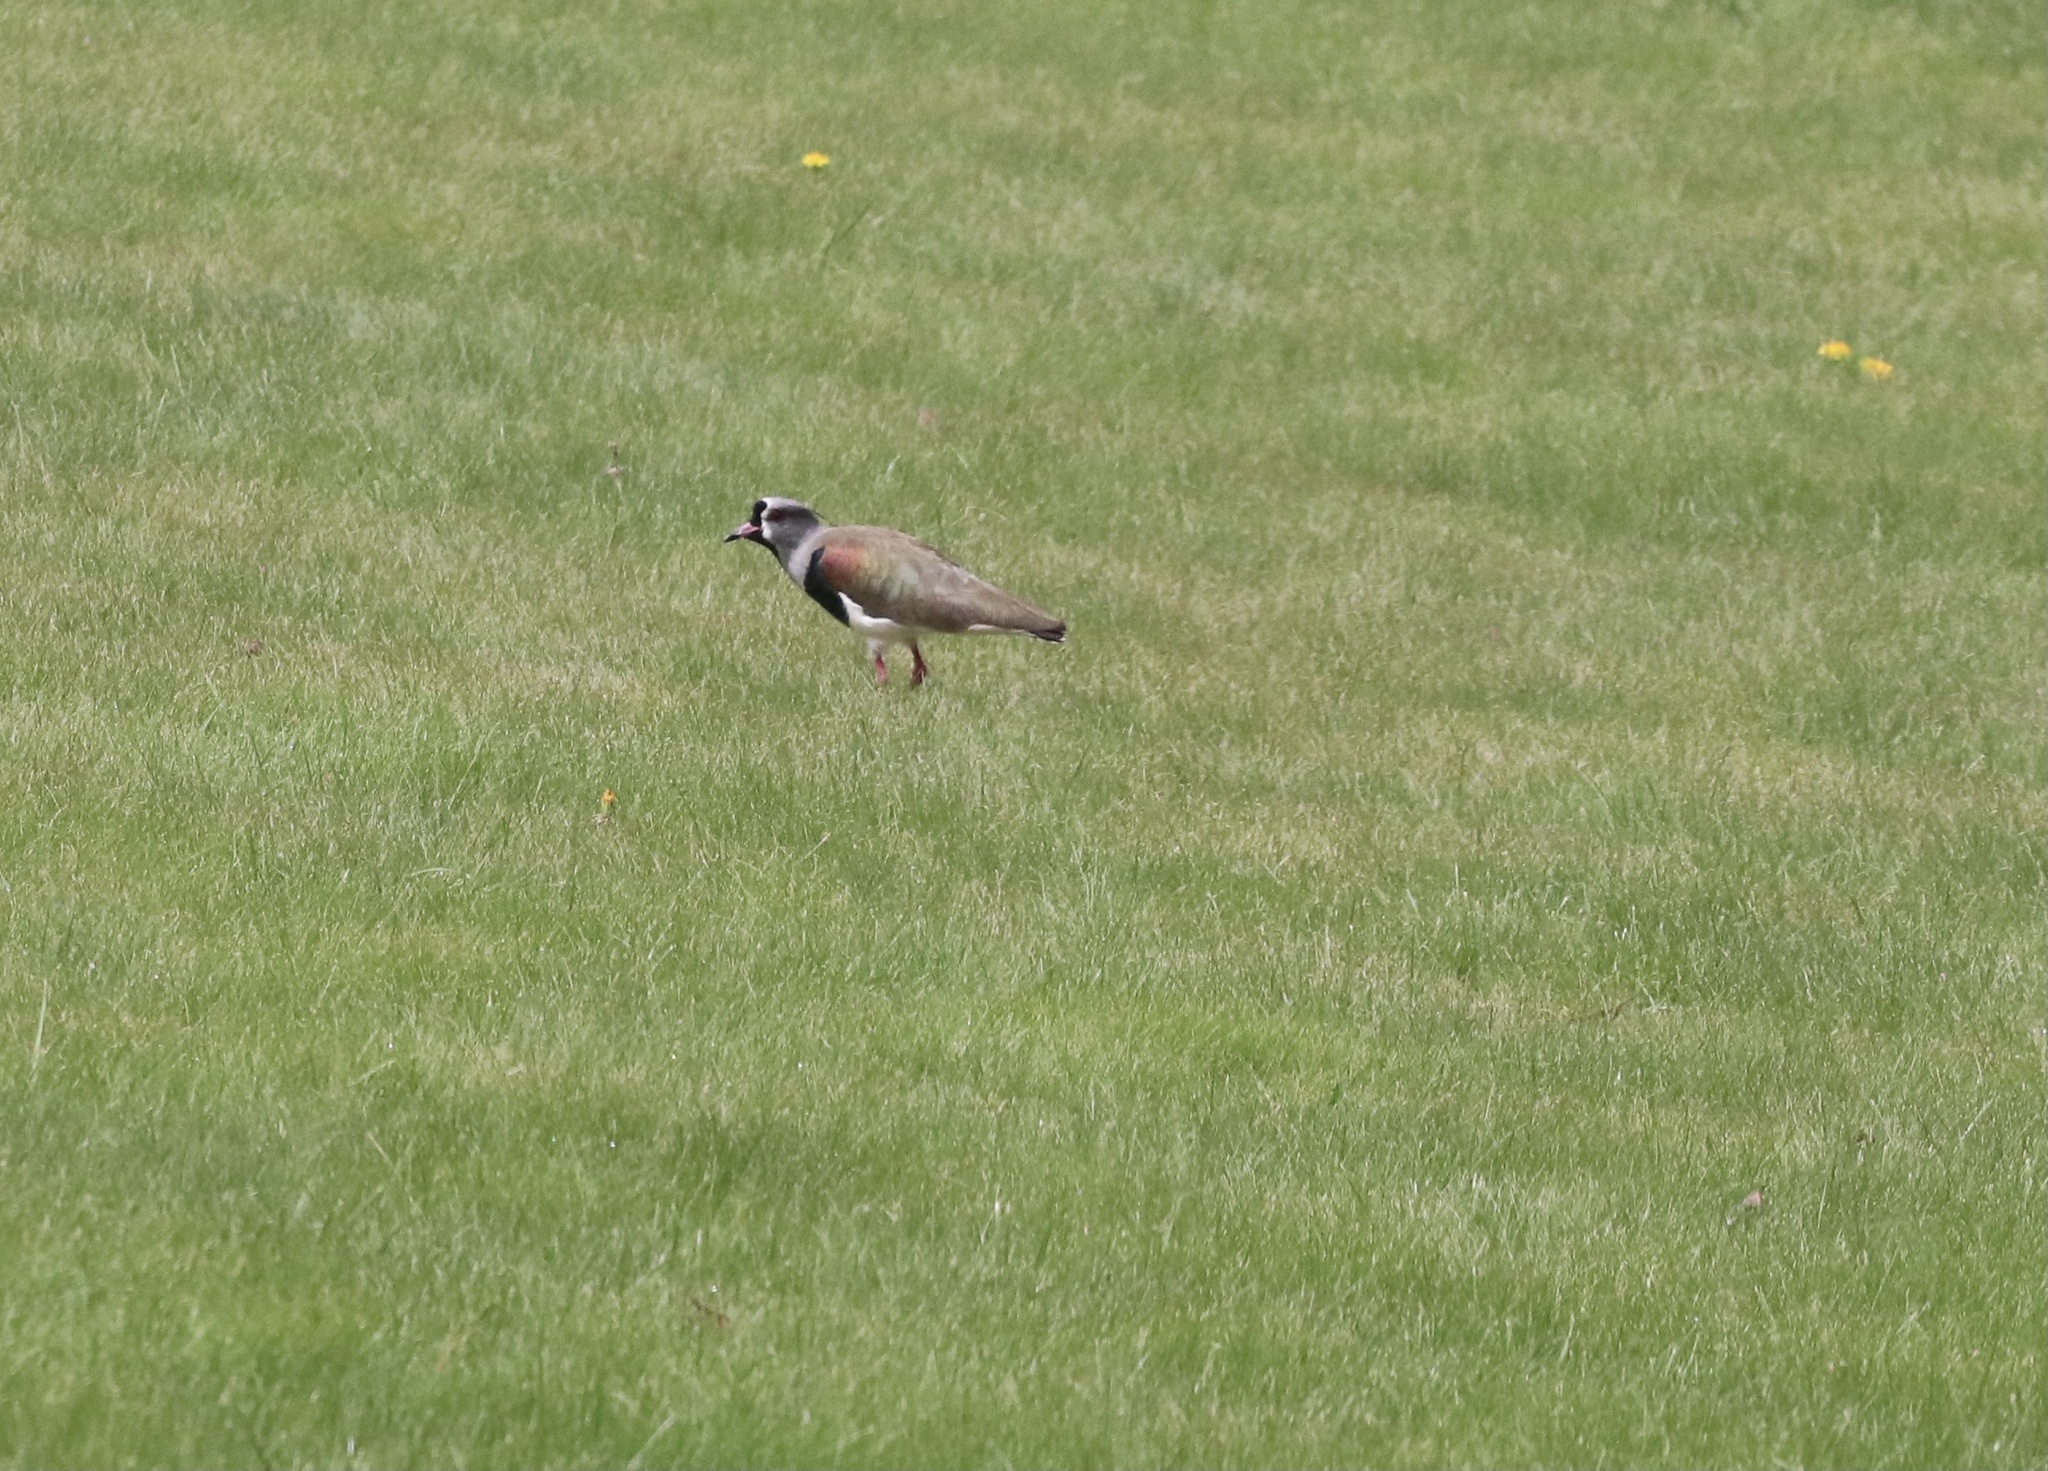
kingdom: Animalia
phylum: Chordata
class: Aves
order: Charadriiformes
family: Charadriidae
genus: Vanellus
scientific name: Vanellus chilensis
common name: Southern lapwing
